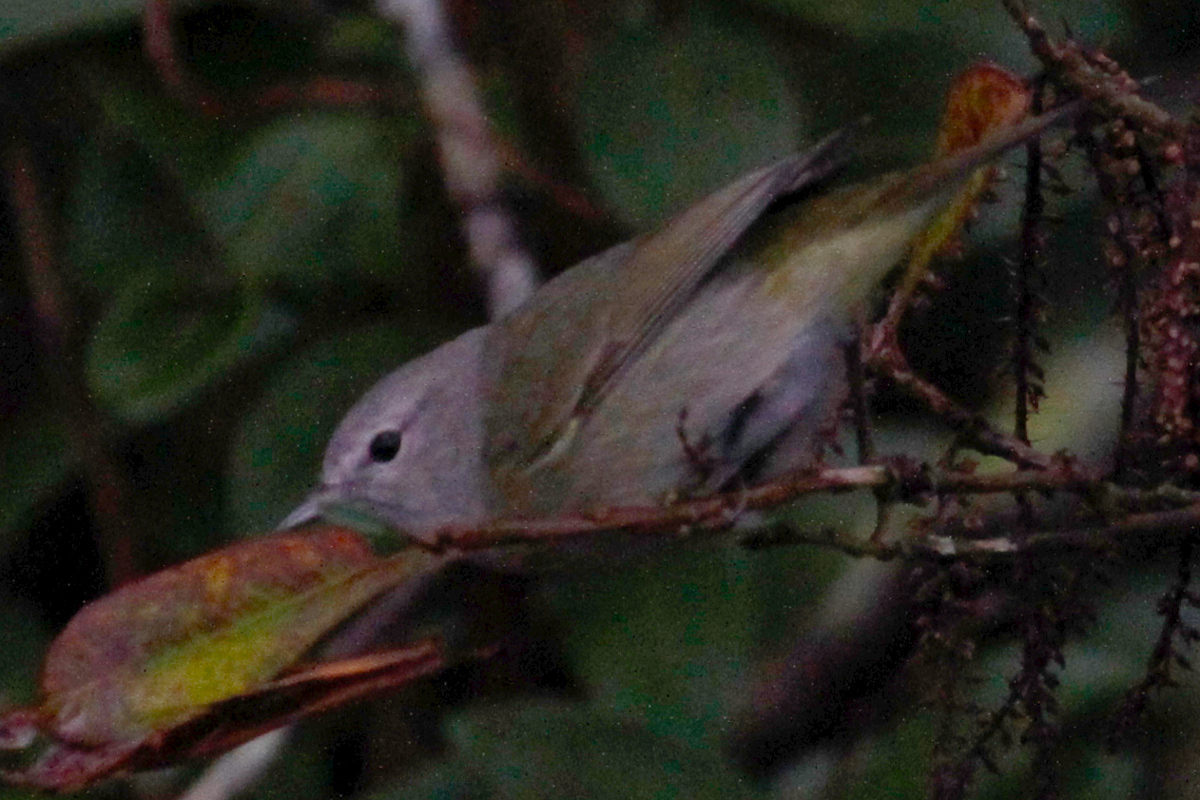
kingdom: Animalia
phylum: Chordata
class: Aves
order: Passeriformes
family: Parulidae
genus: Leiothlypis
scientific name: Leiothlypis celata
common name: Orange-crowned warbler
